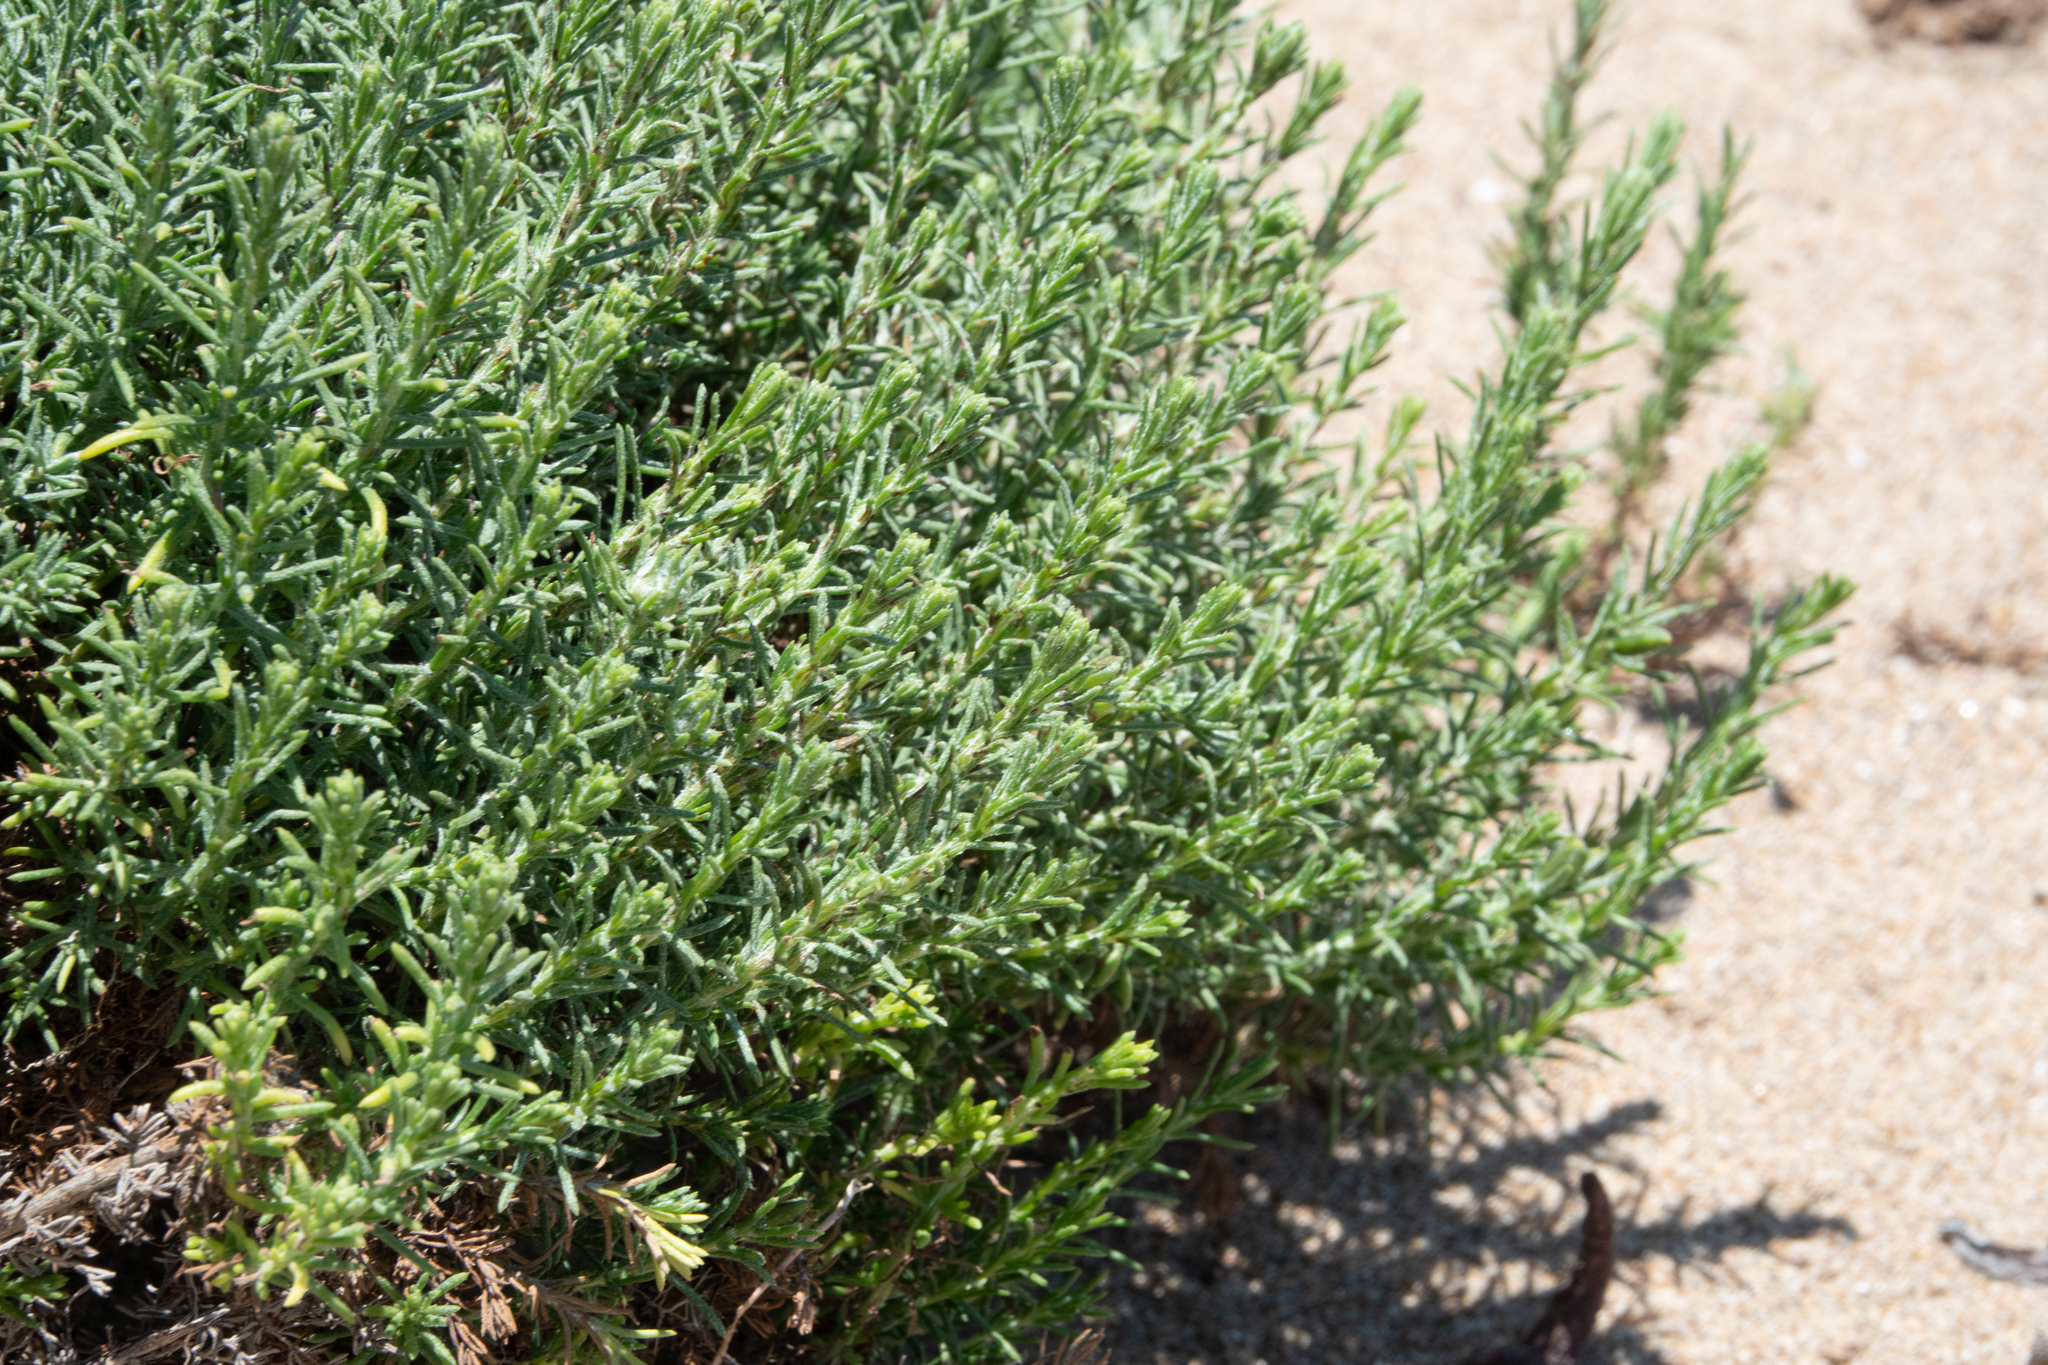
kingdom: Plantae
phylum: Tracheophyta
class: Magnoliopsida
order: Asterales
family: Asteraceae
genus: Ericameria
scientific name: Ericameria ericoides
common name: California goldenbush
